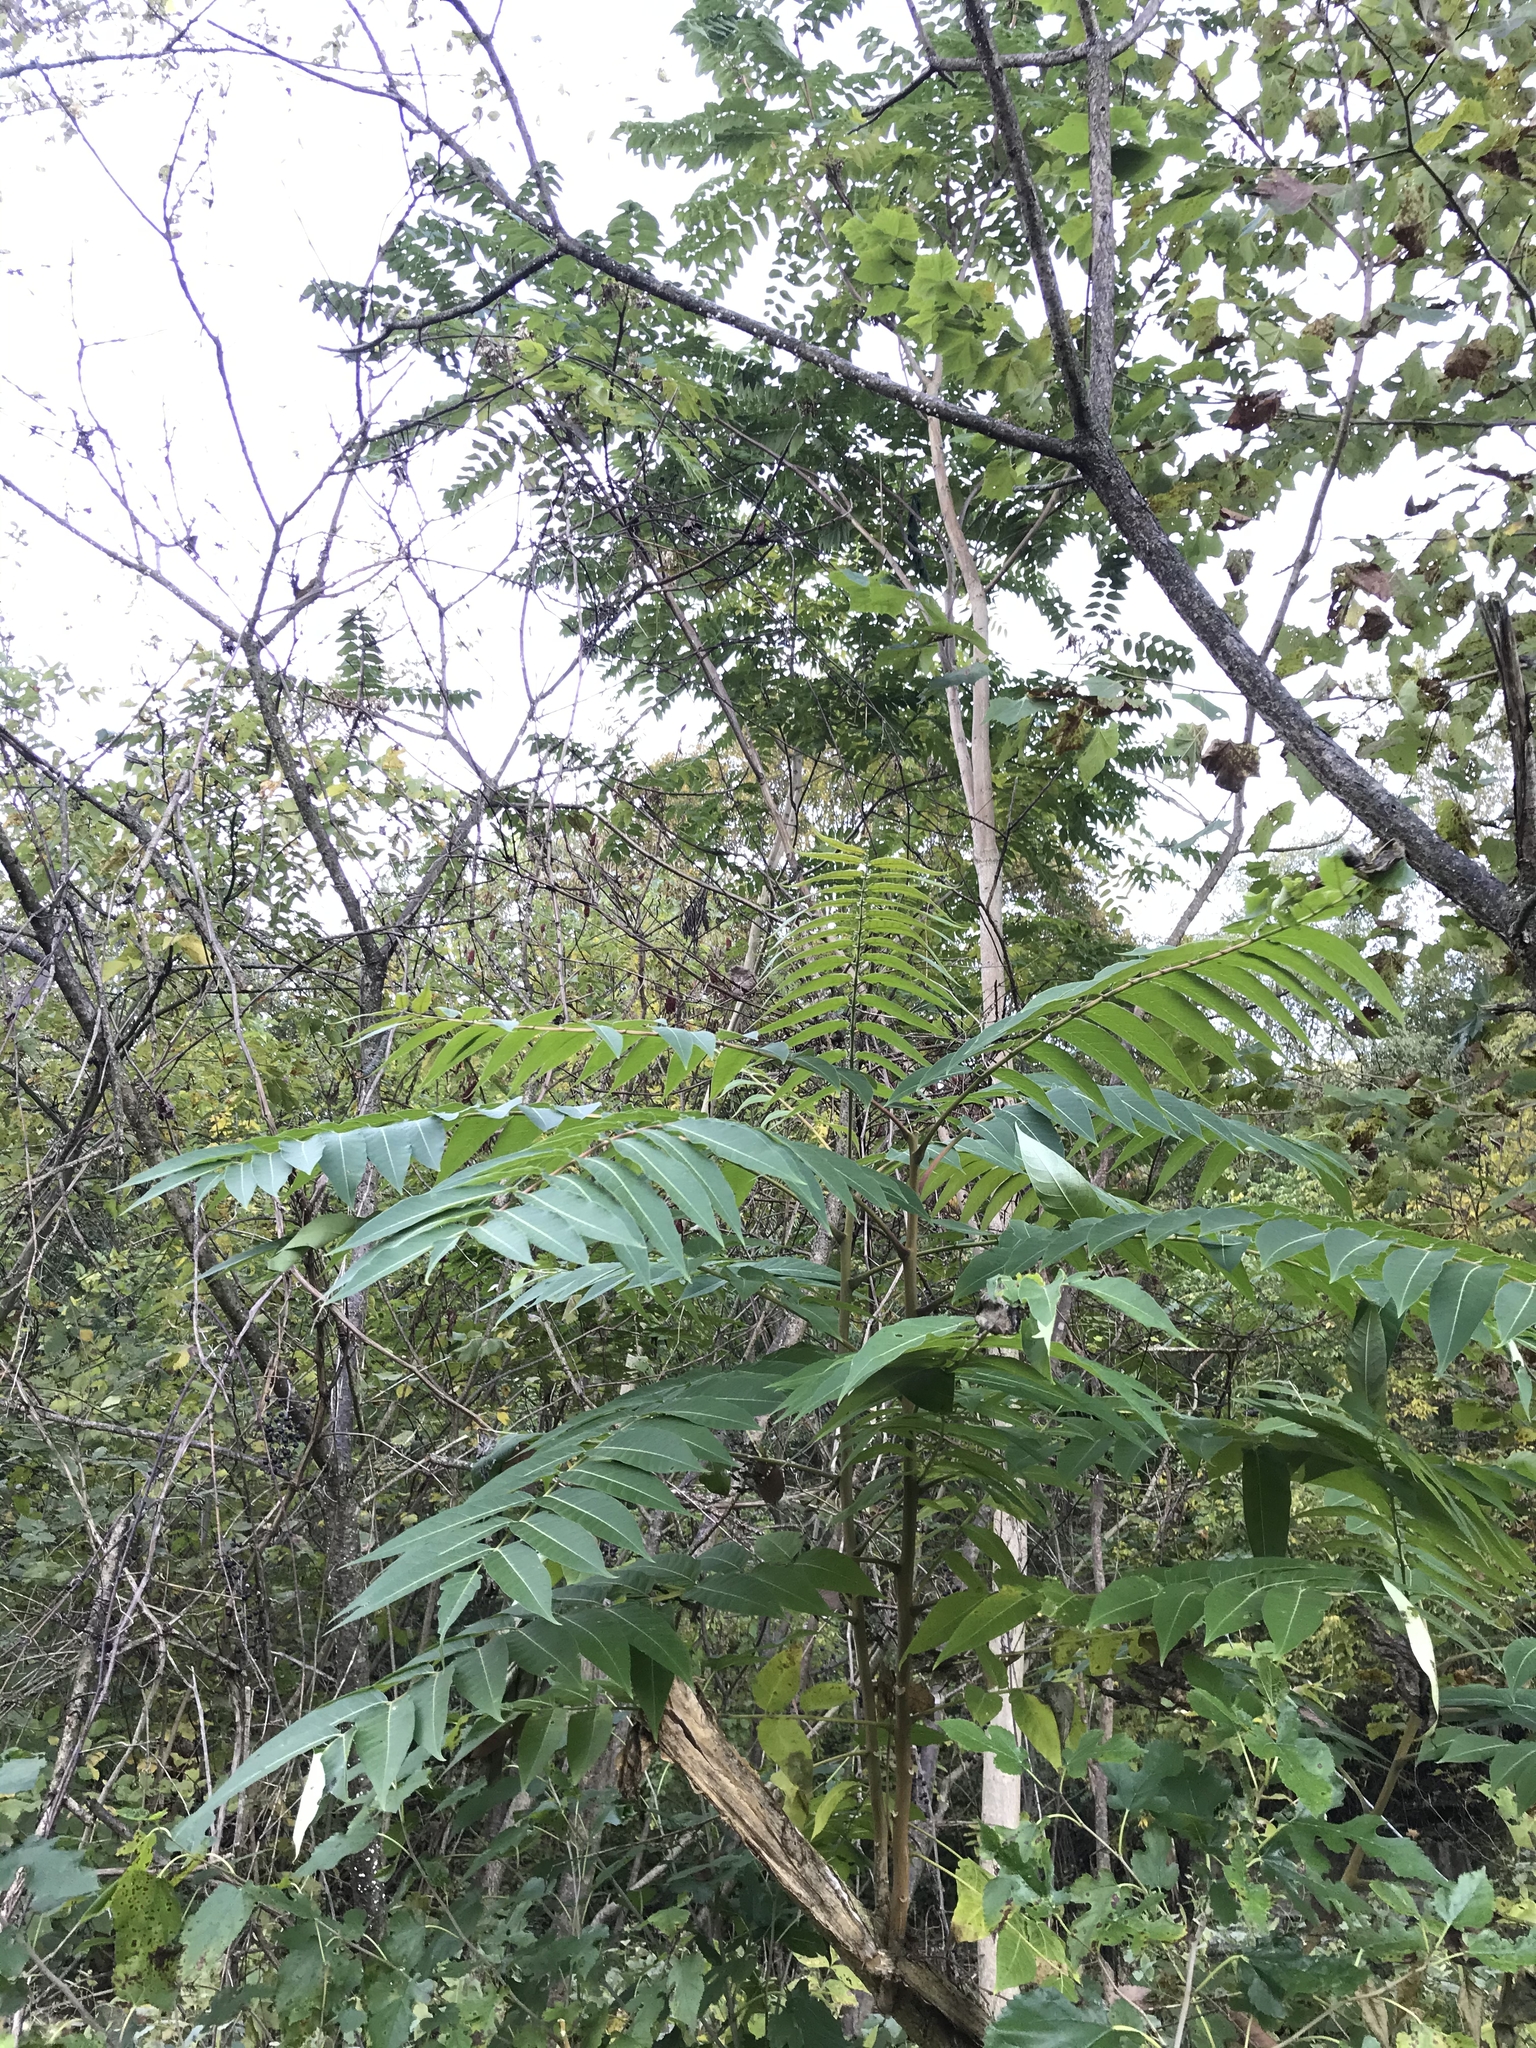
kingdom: Plantae
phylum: Tracheophyta
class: Magnoliopsida
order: Sapindales
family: Simaroubaceae
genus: Ailanthus
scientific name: Ailanthus altissima
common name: Tree-of-heaven
